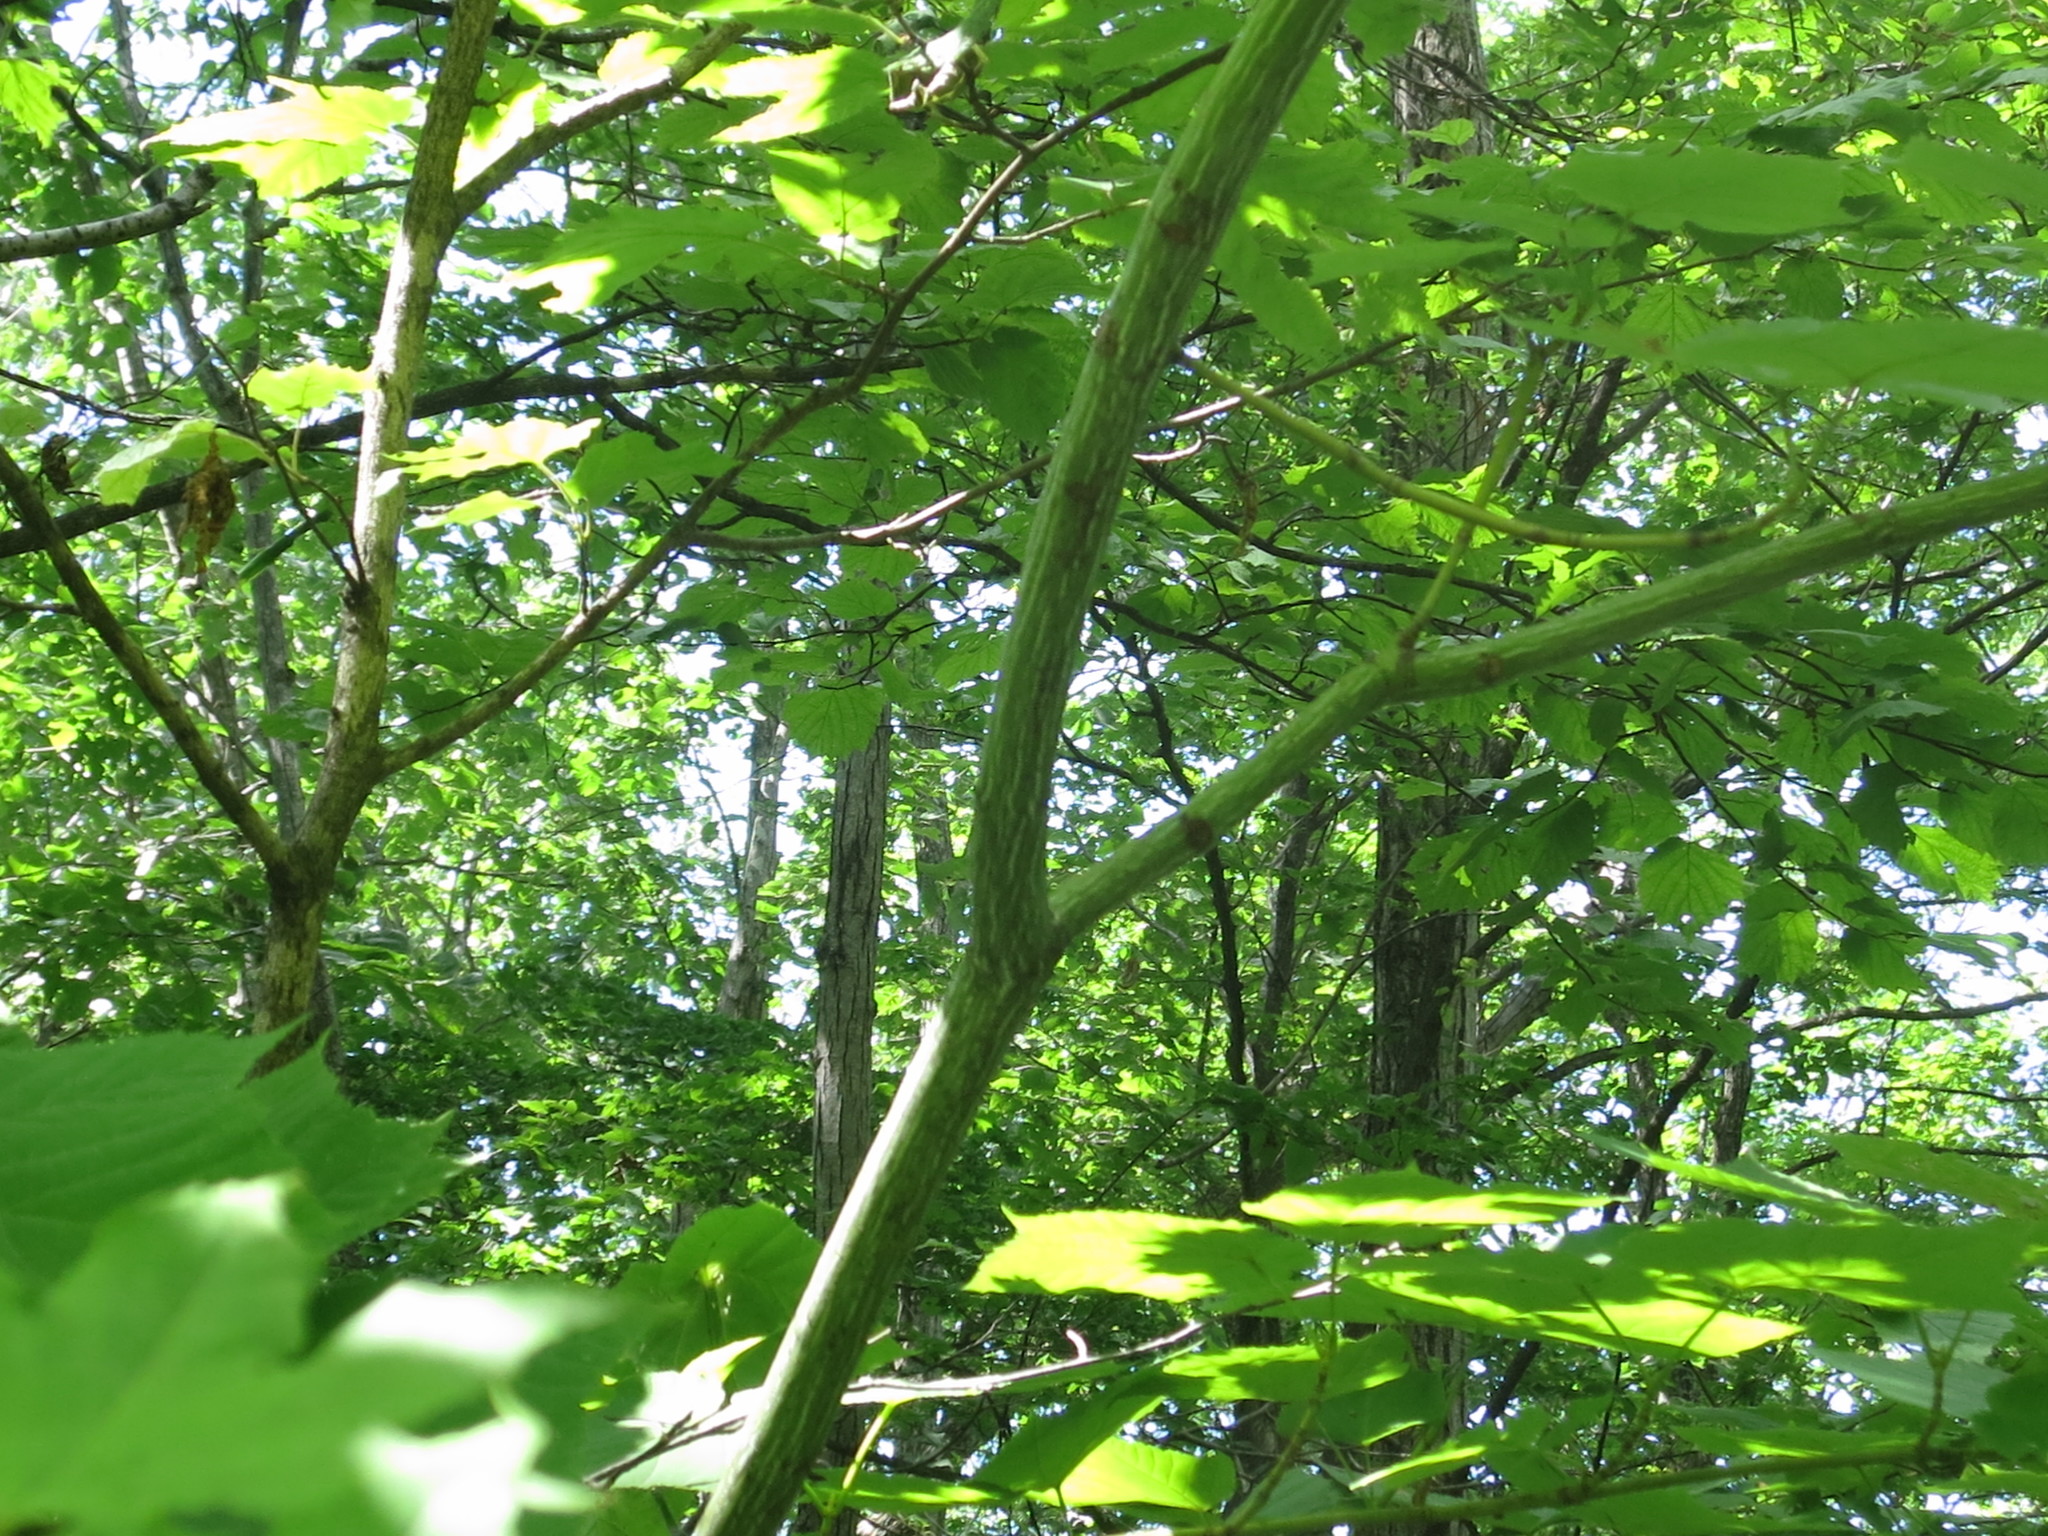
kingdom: Plantae
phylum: Tracheophyta
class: Magnoliopsida
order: Sapindales
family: Sapindaceae
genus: Acer
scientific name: Acer tegmentosum
